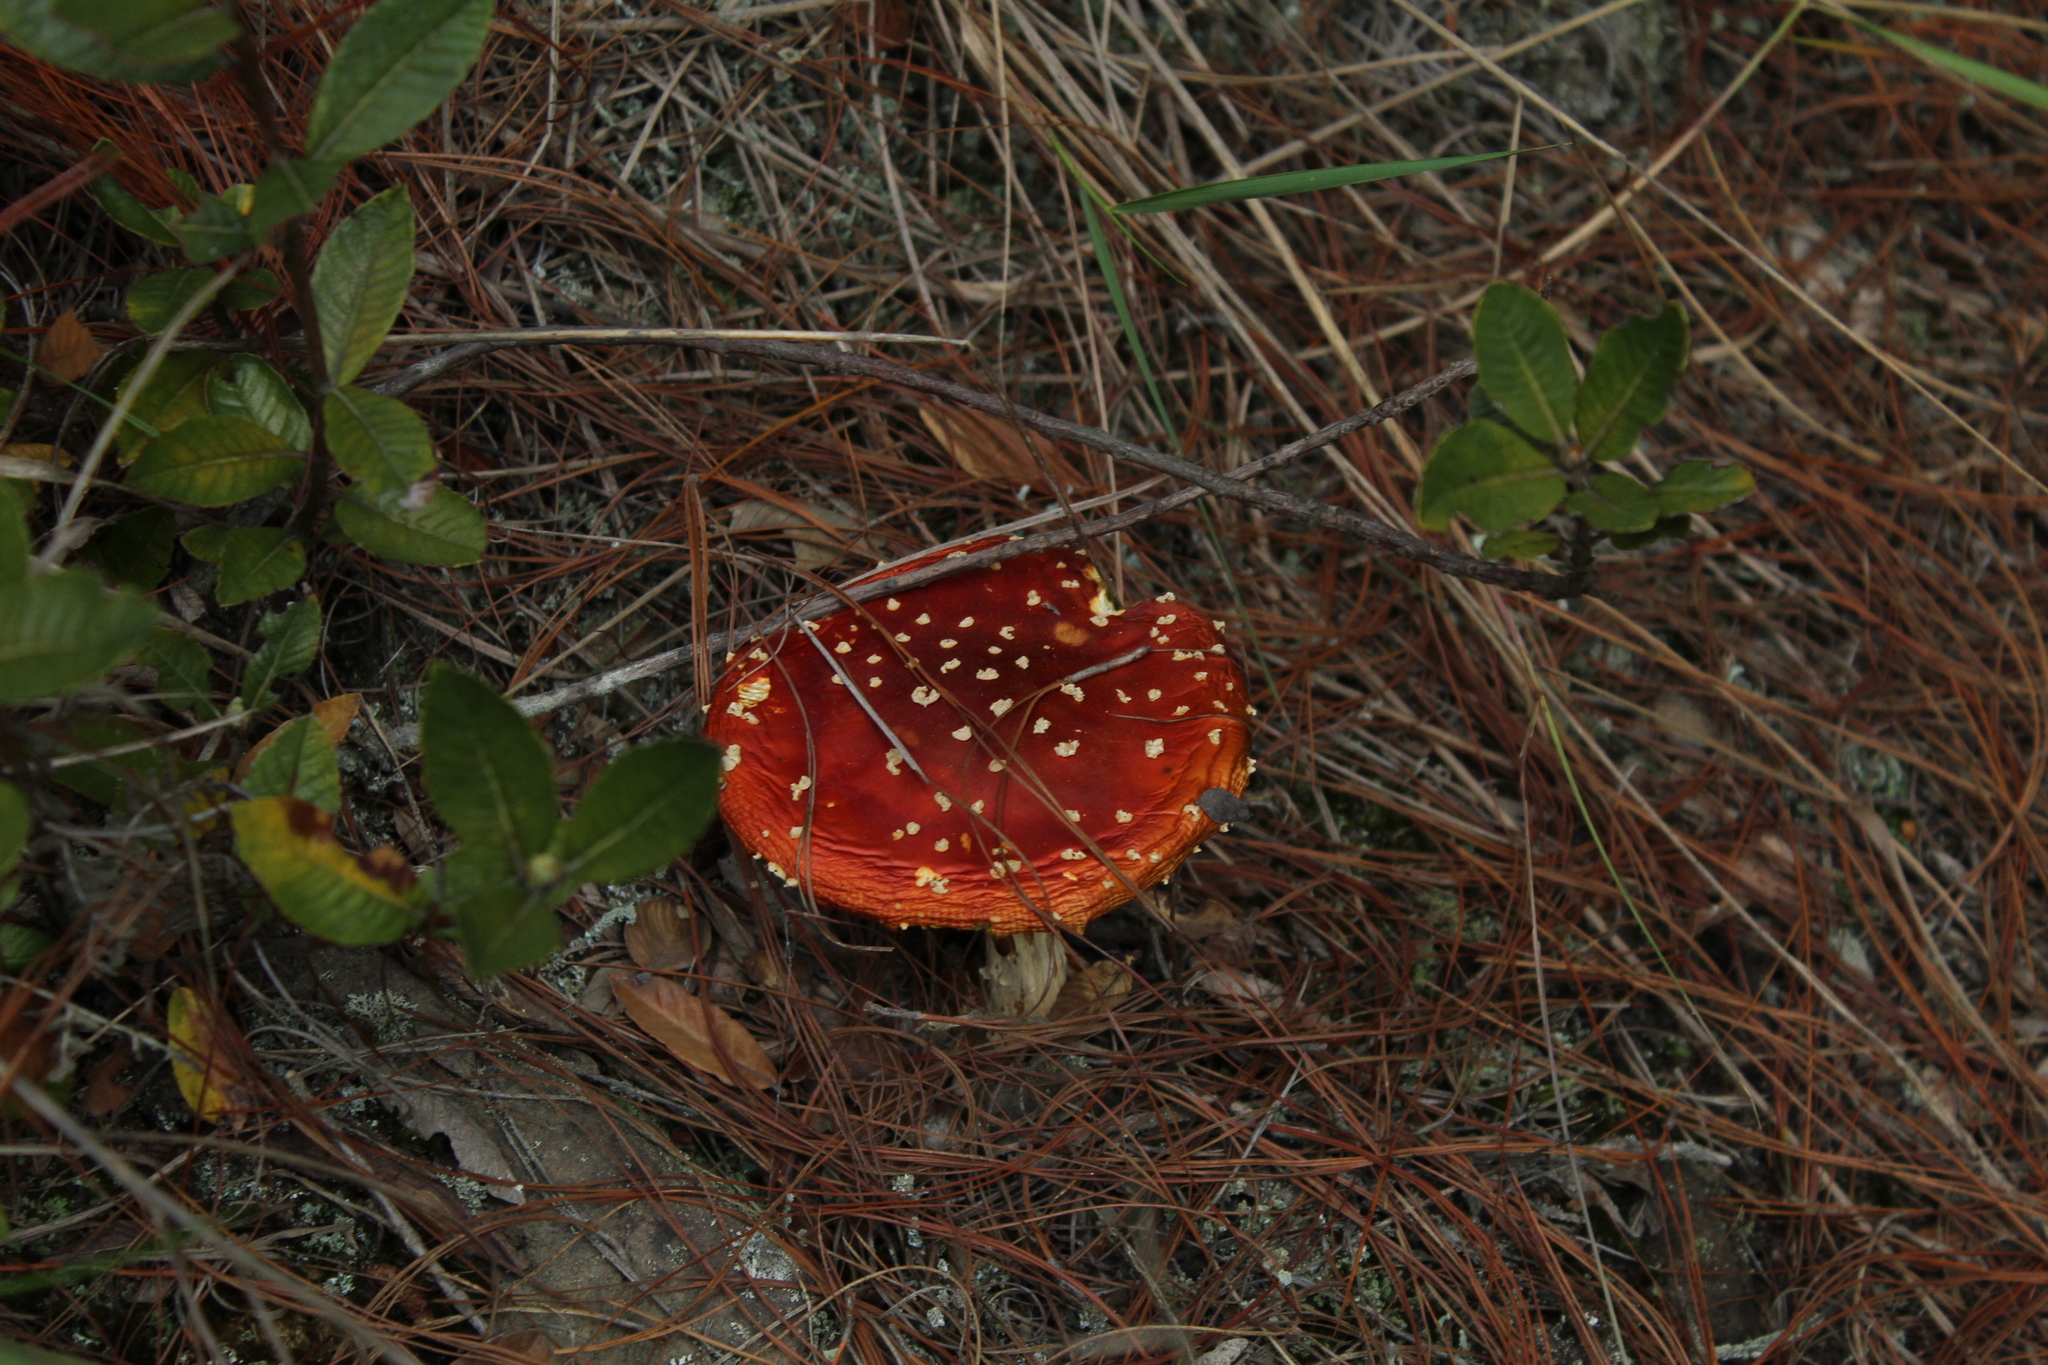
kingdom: Fungi
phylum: Basidiomycota
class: Agaricomycetes
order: Agaricales
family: Amanitaceae
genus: Amanita
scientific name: Amanita muscaria
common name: Fly agaric
